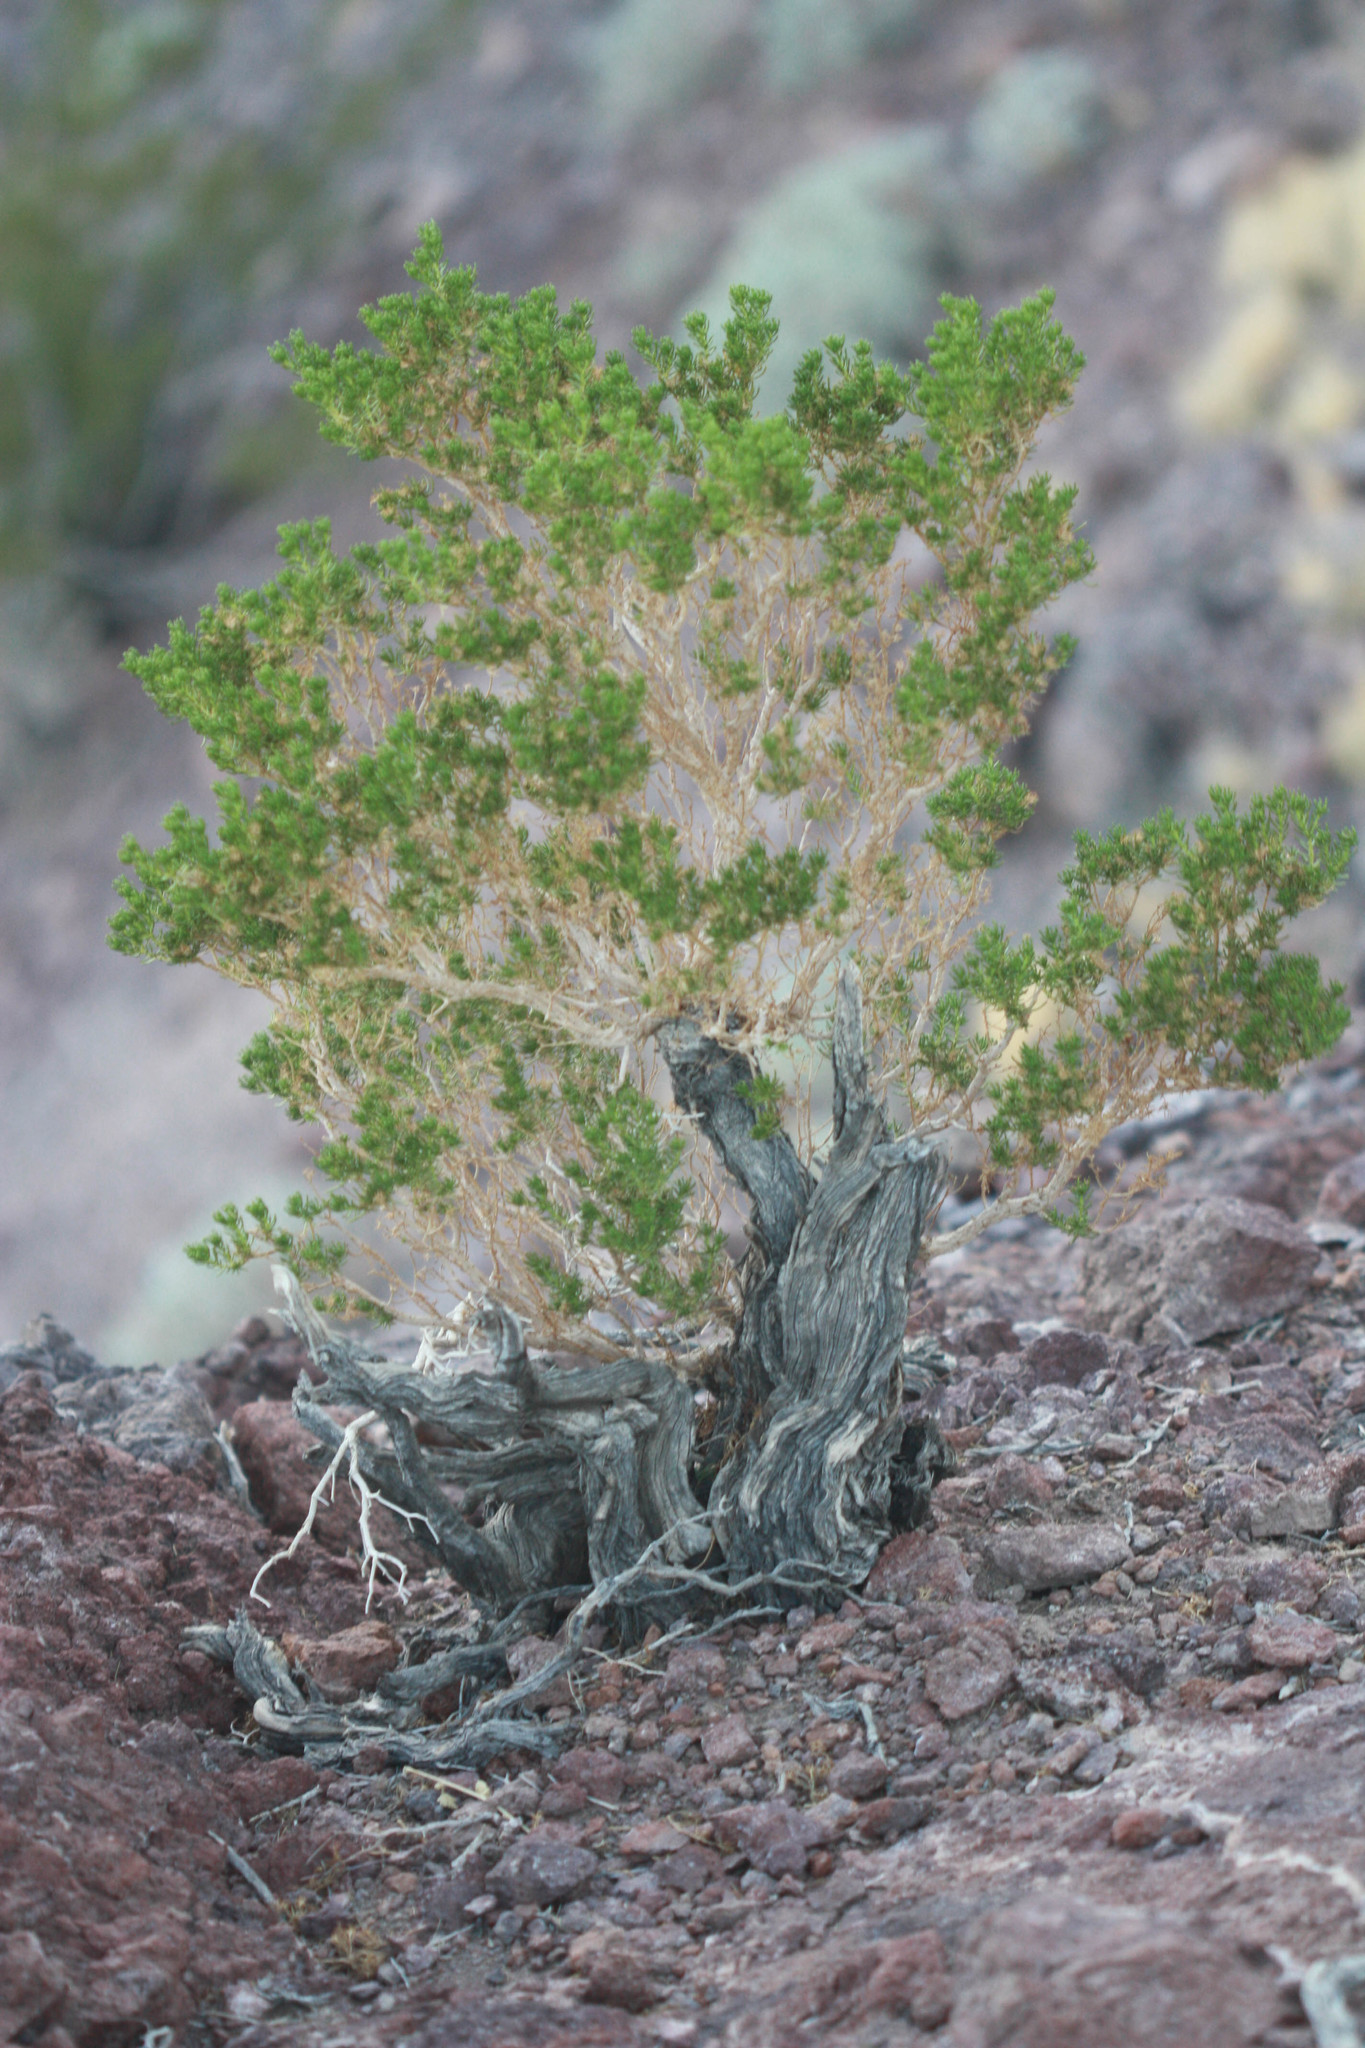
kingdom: Plantae
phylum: Tracheophyta
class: Magnoliopsida
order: Asterales
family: Asteraceae
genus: Peucephyllum
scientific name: Peucephyllum schottii
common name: Pygmy-cedar
